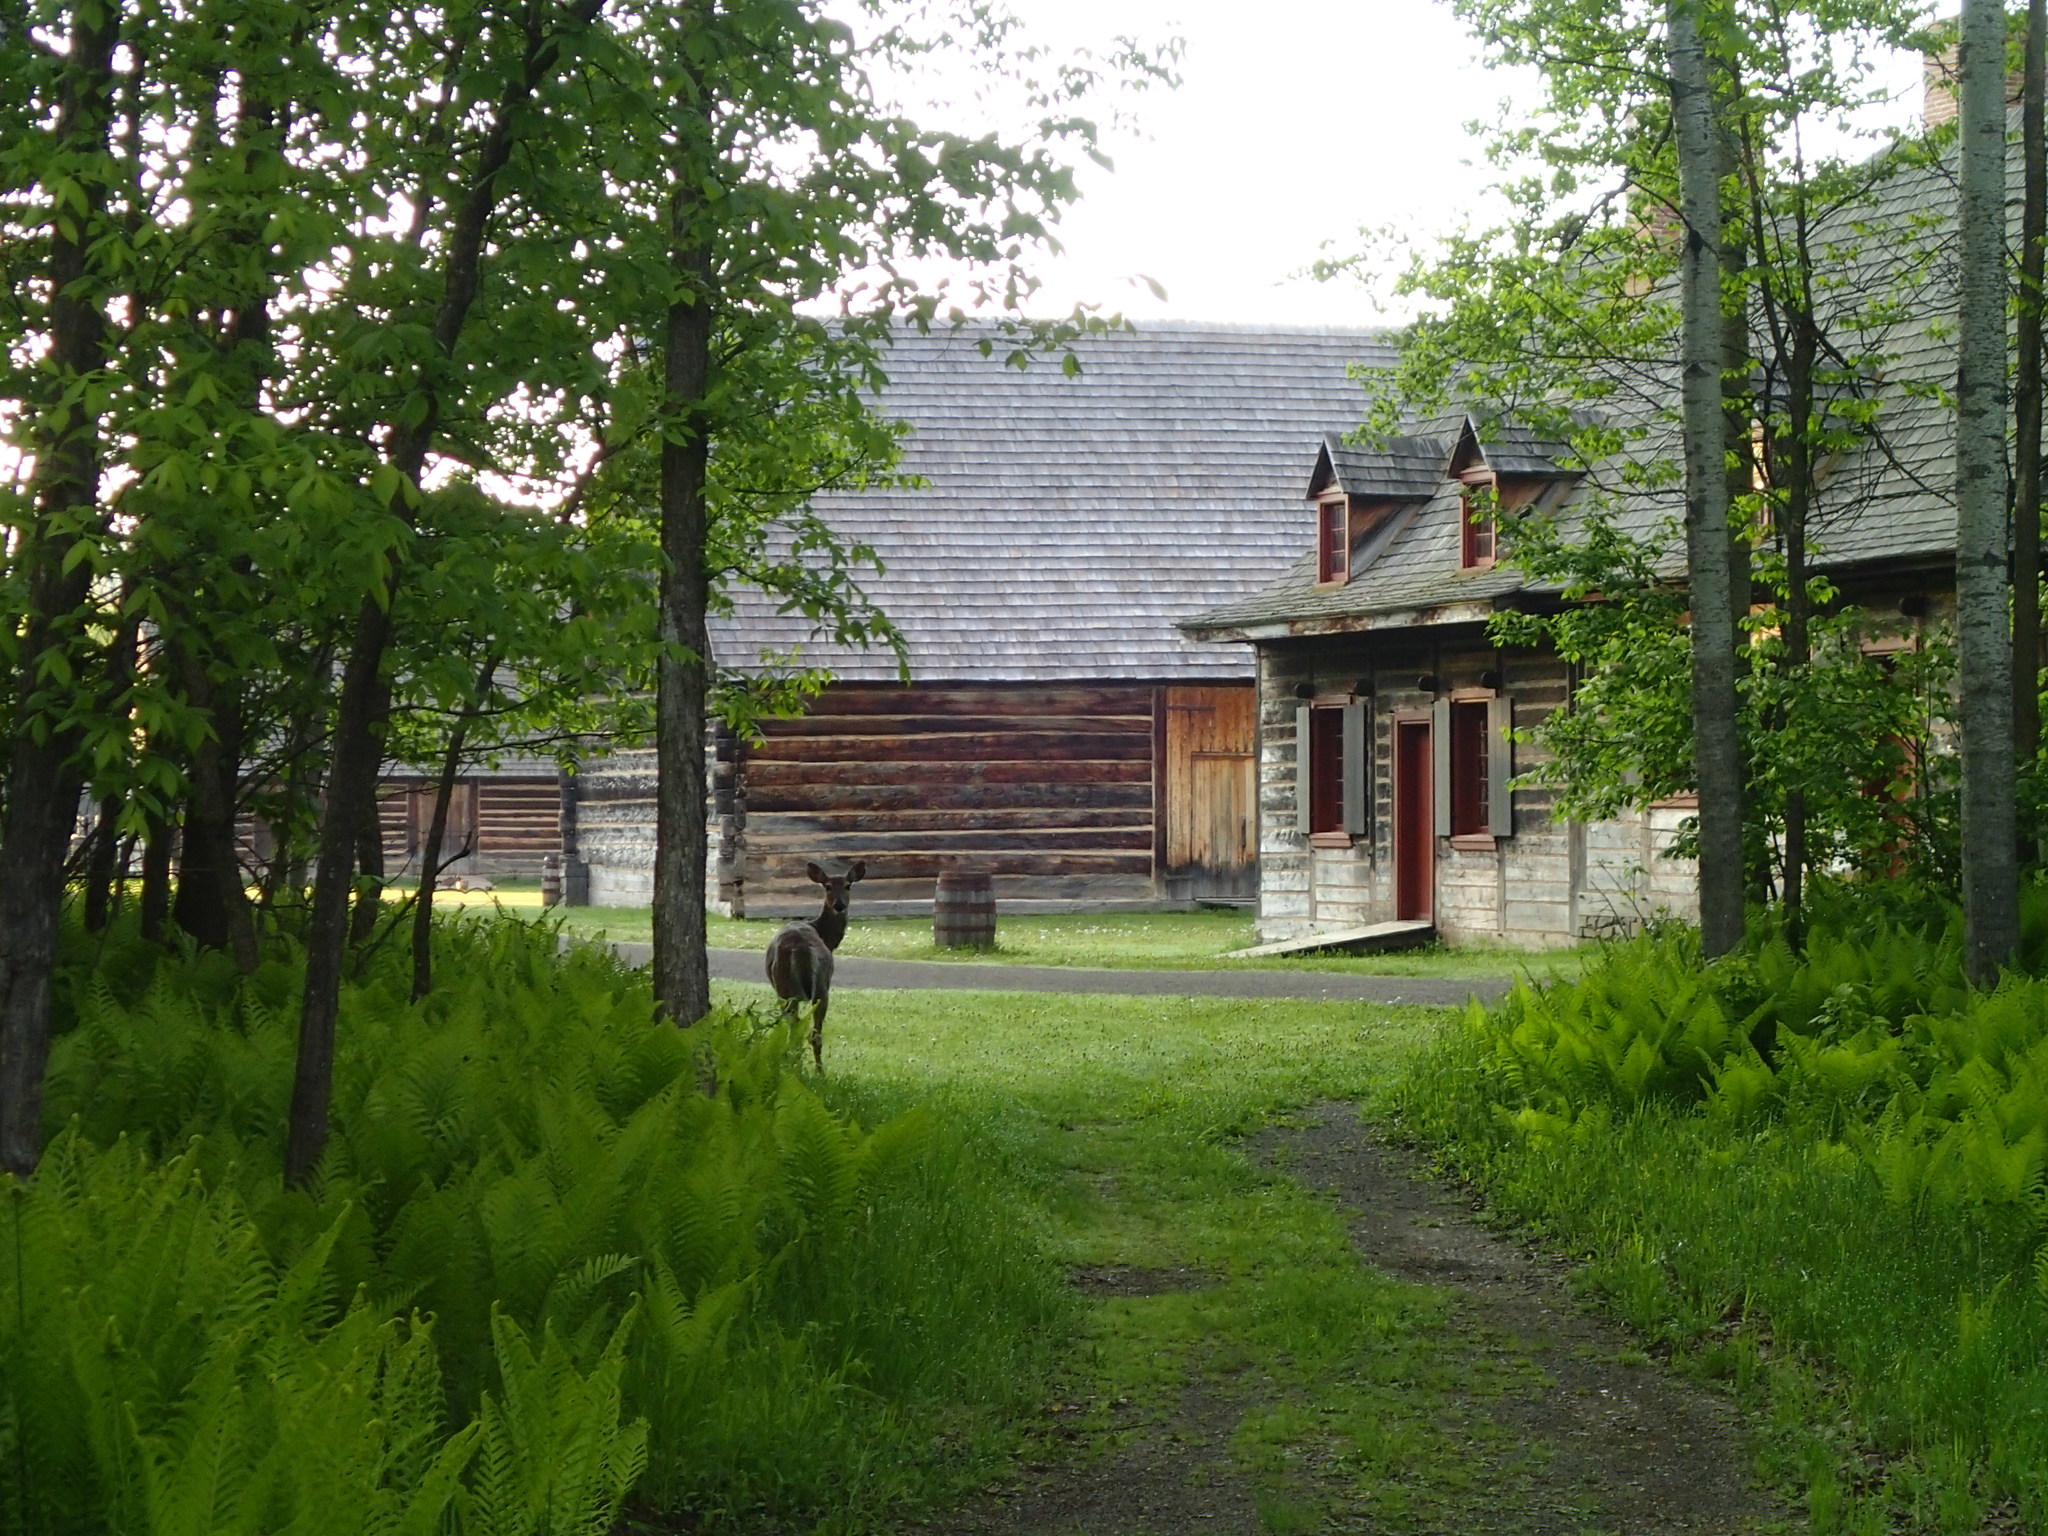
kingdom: Animalia
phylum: Chordata
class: Mammalia
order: Artiodactyla
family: Cervidae
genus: Odocoileus
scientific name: Odocoileus virginianus
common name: White-tailed deer
